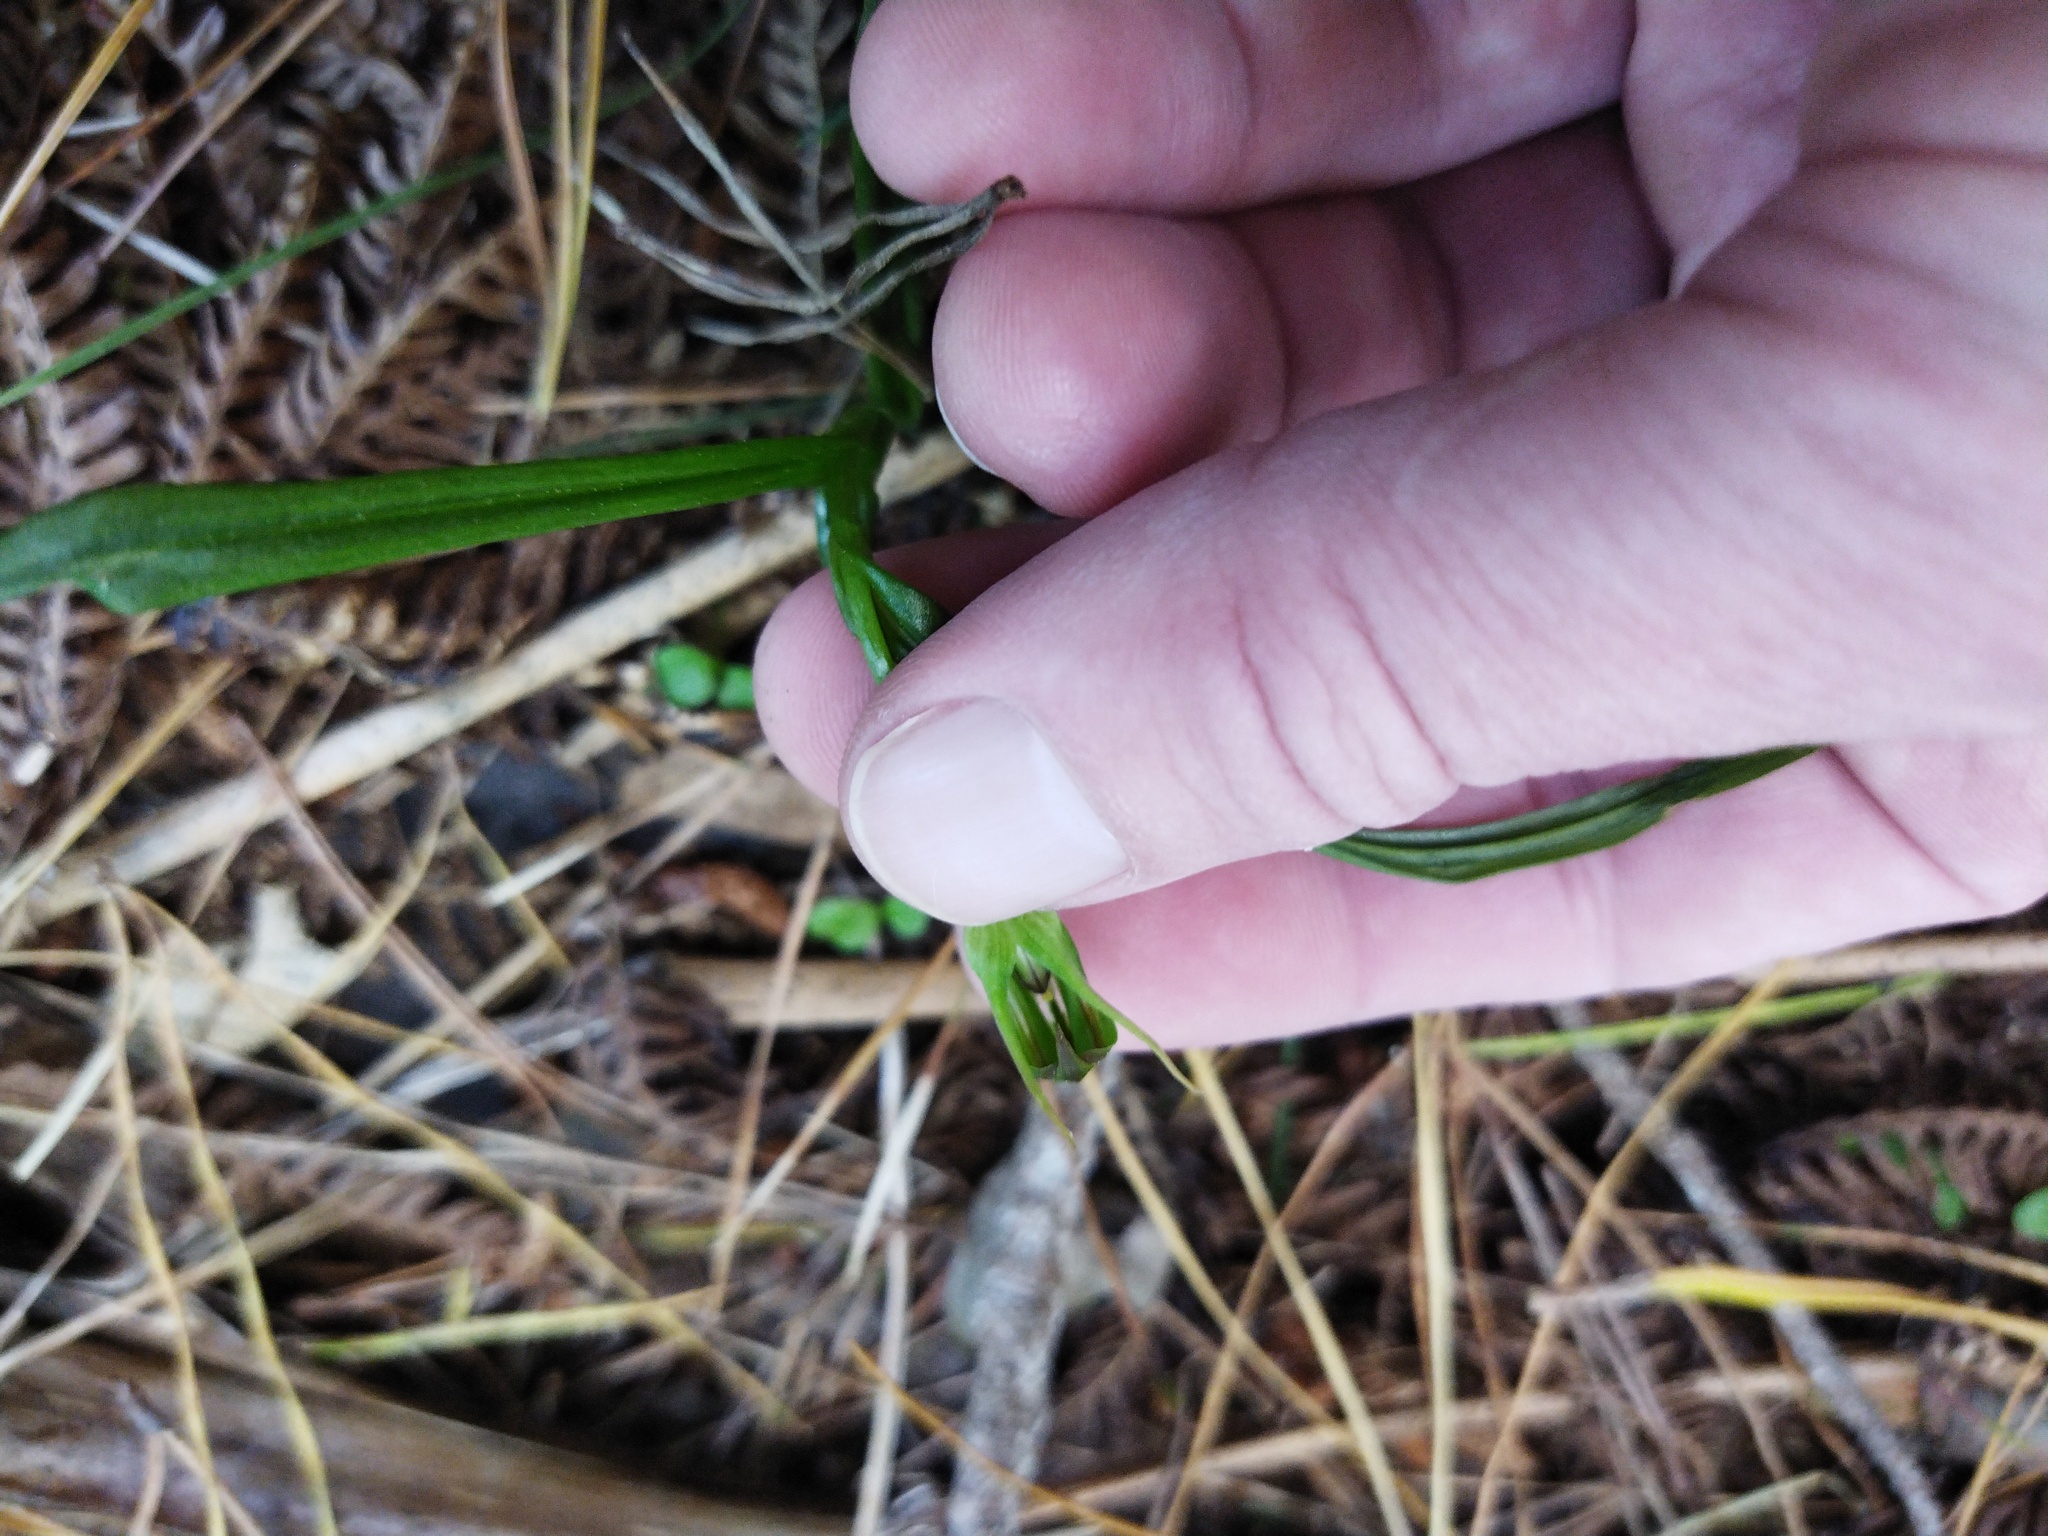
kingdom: Plantae
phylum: Tracheophyta
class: Liliopsida
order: Asparagales
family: Orchidaceae
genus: Pterostylis
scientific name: Pterostylis graminea
